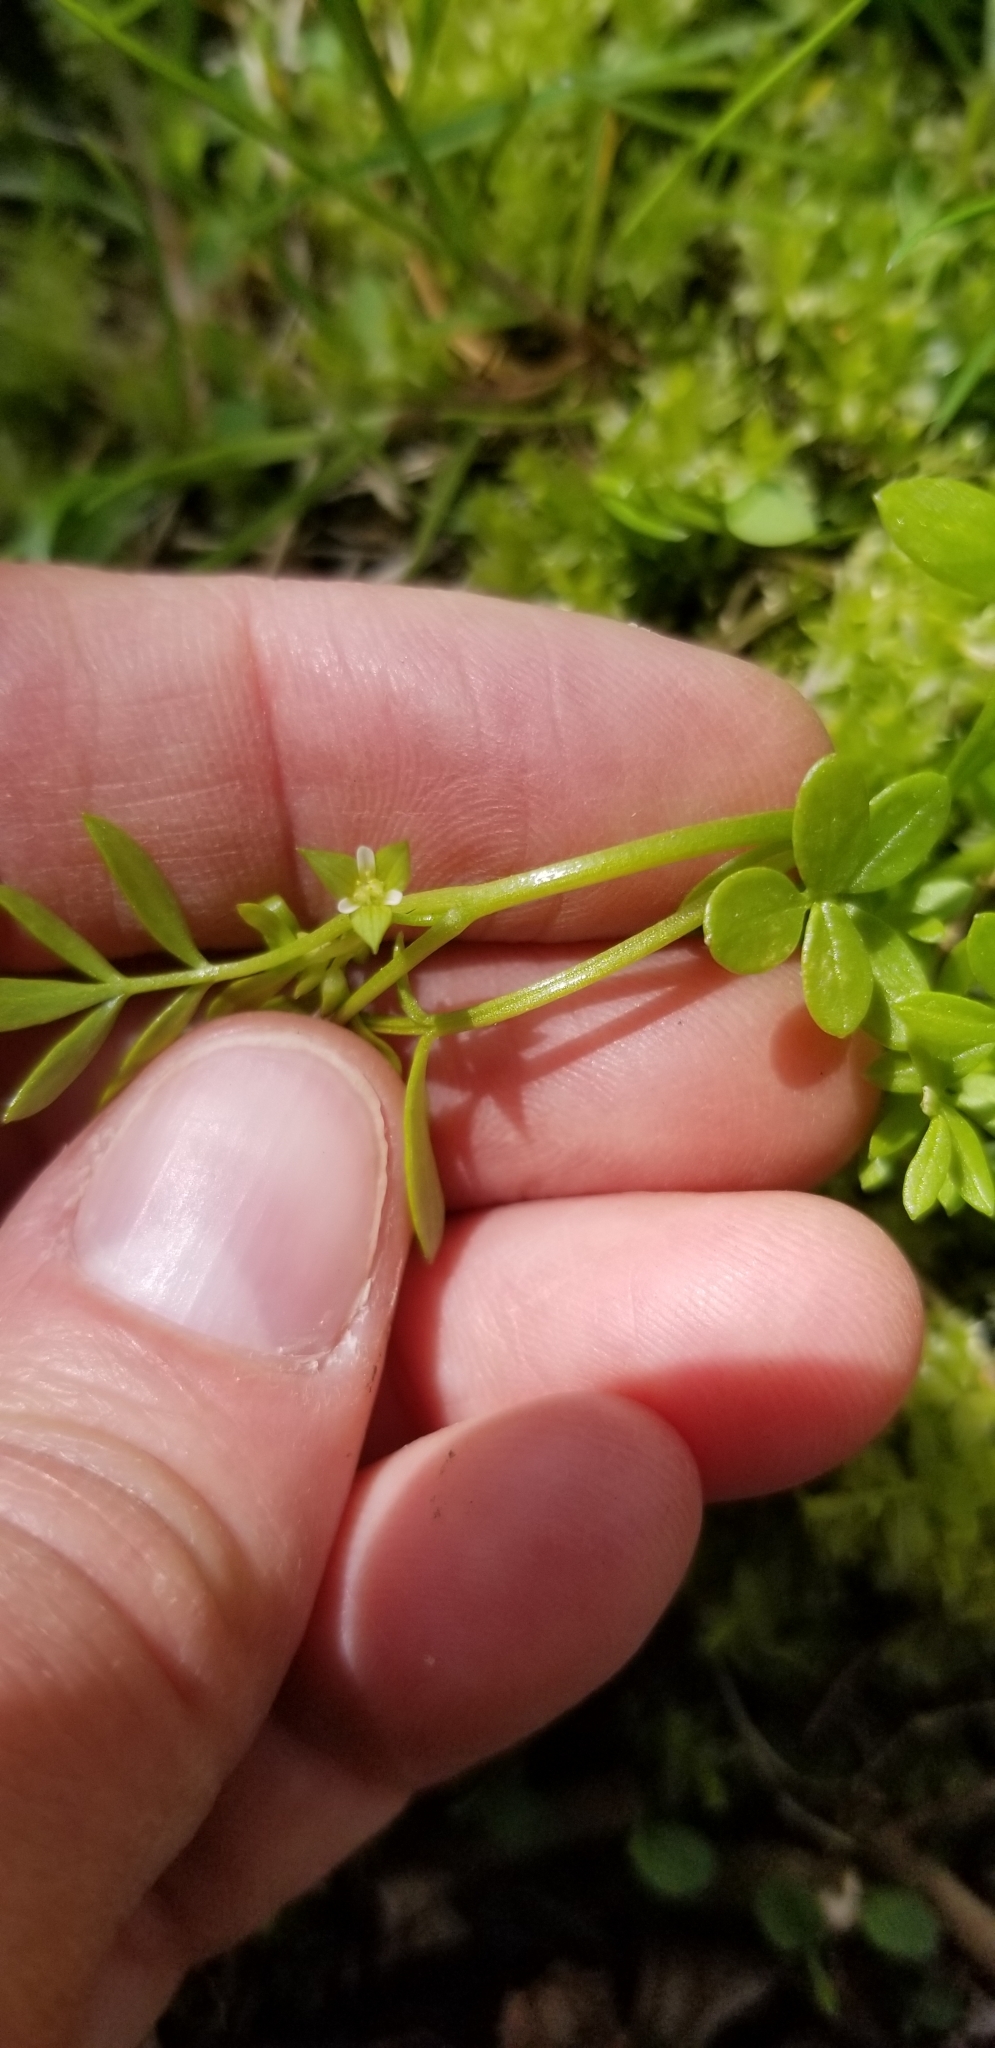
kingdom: Plantae
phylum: Tracheophyta
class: Magnoliopsida
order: Brassicales
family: Limnanthaceae
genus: Floerkea
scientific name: Floerkea proserpinacoides
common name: False mermaid
